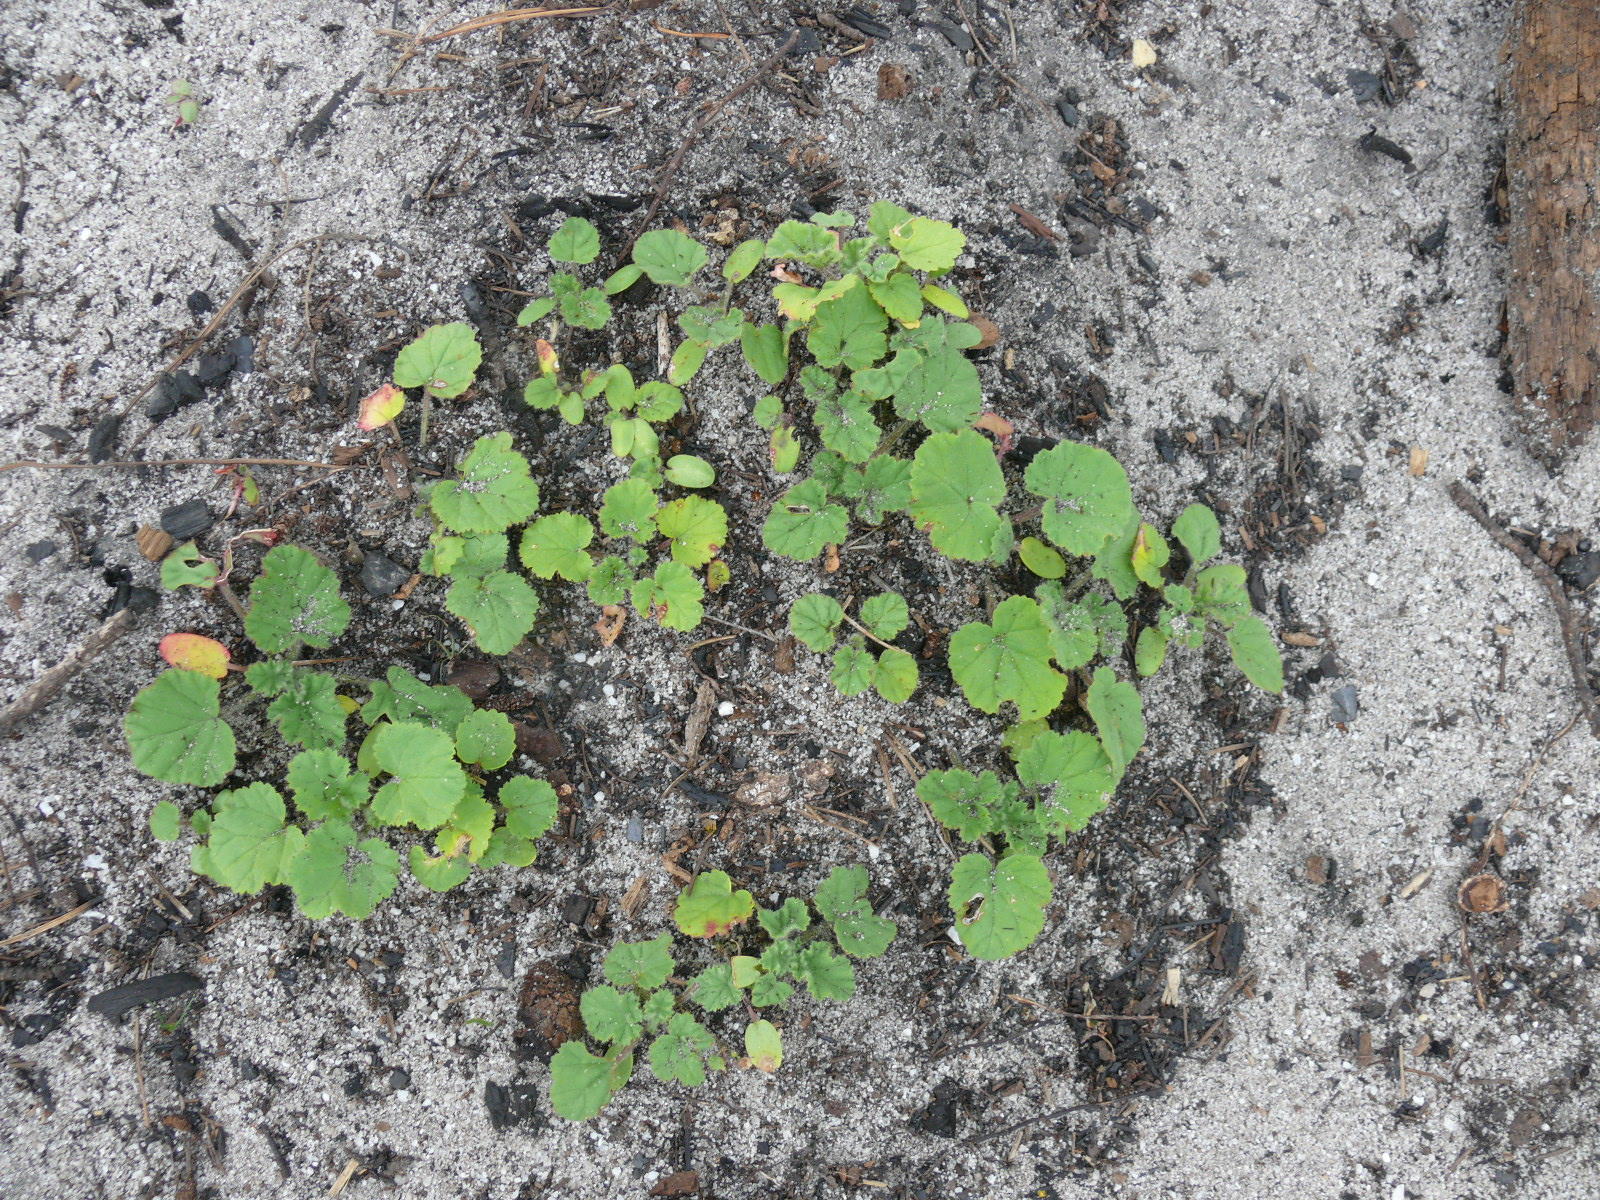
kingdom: Plantae
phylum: Tracheophyta
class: Magnoliopsida
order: Geraniales
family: Geraniaceae
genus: Pelargonium
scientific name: Pelargonium althaeoides
